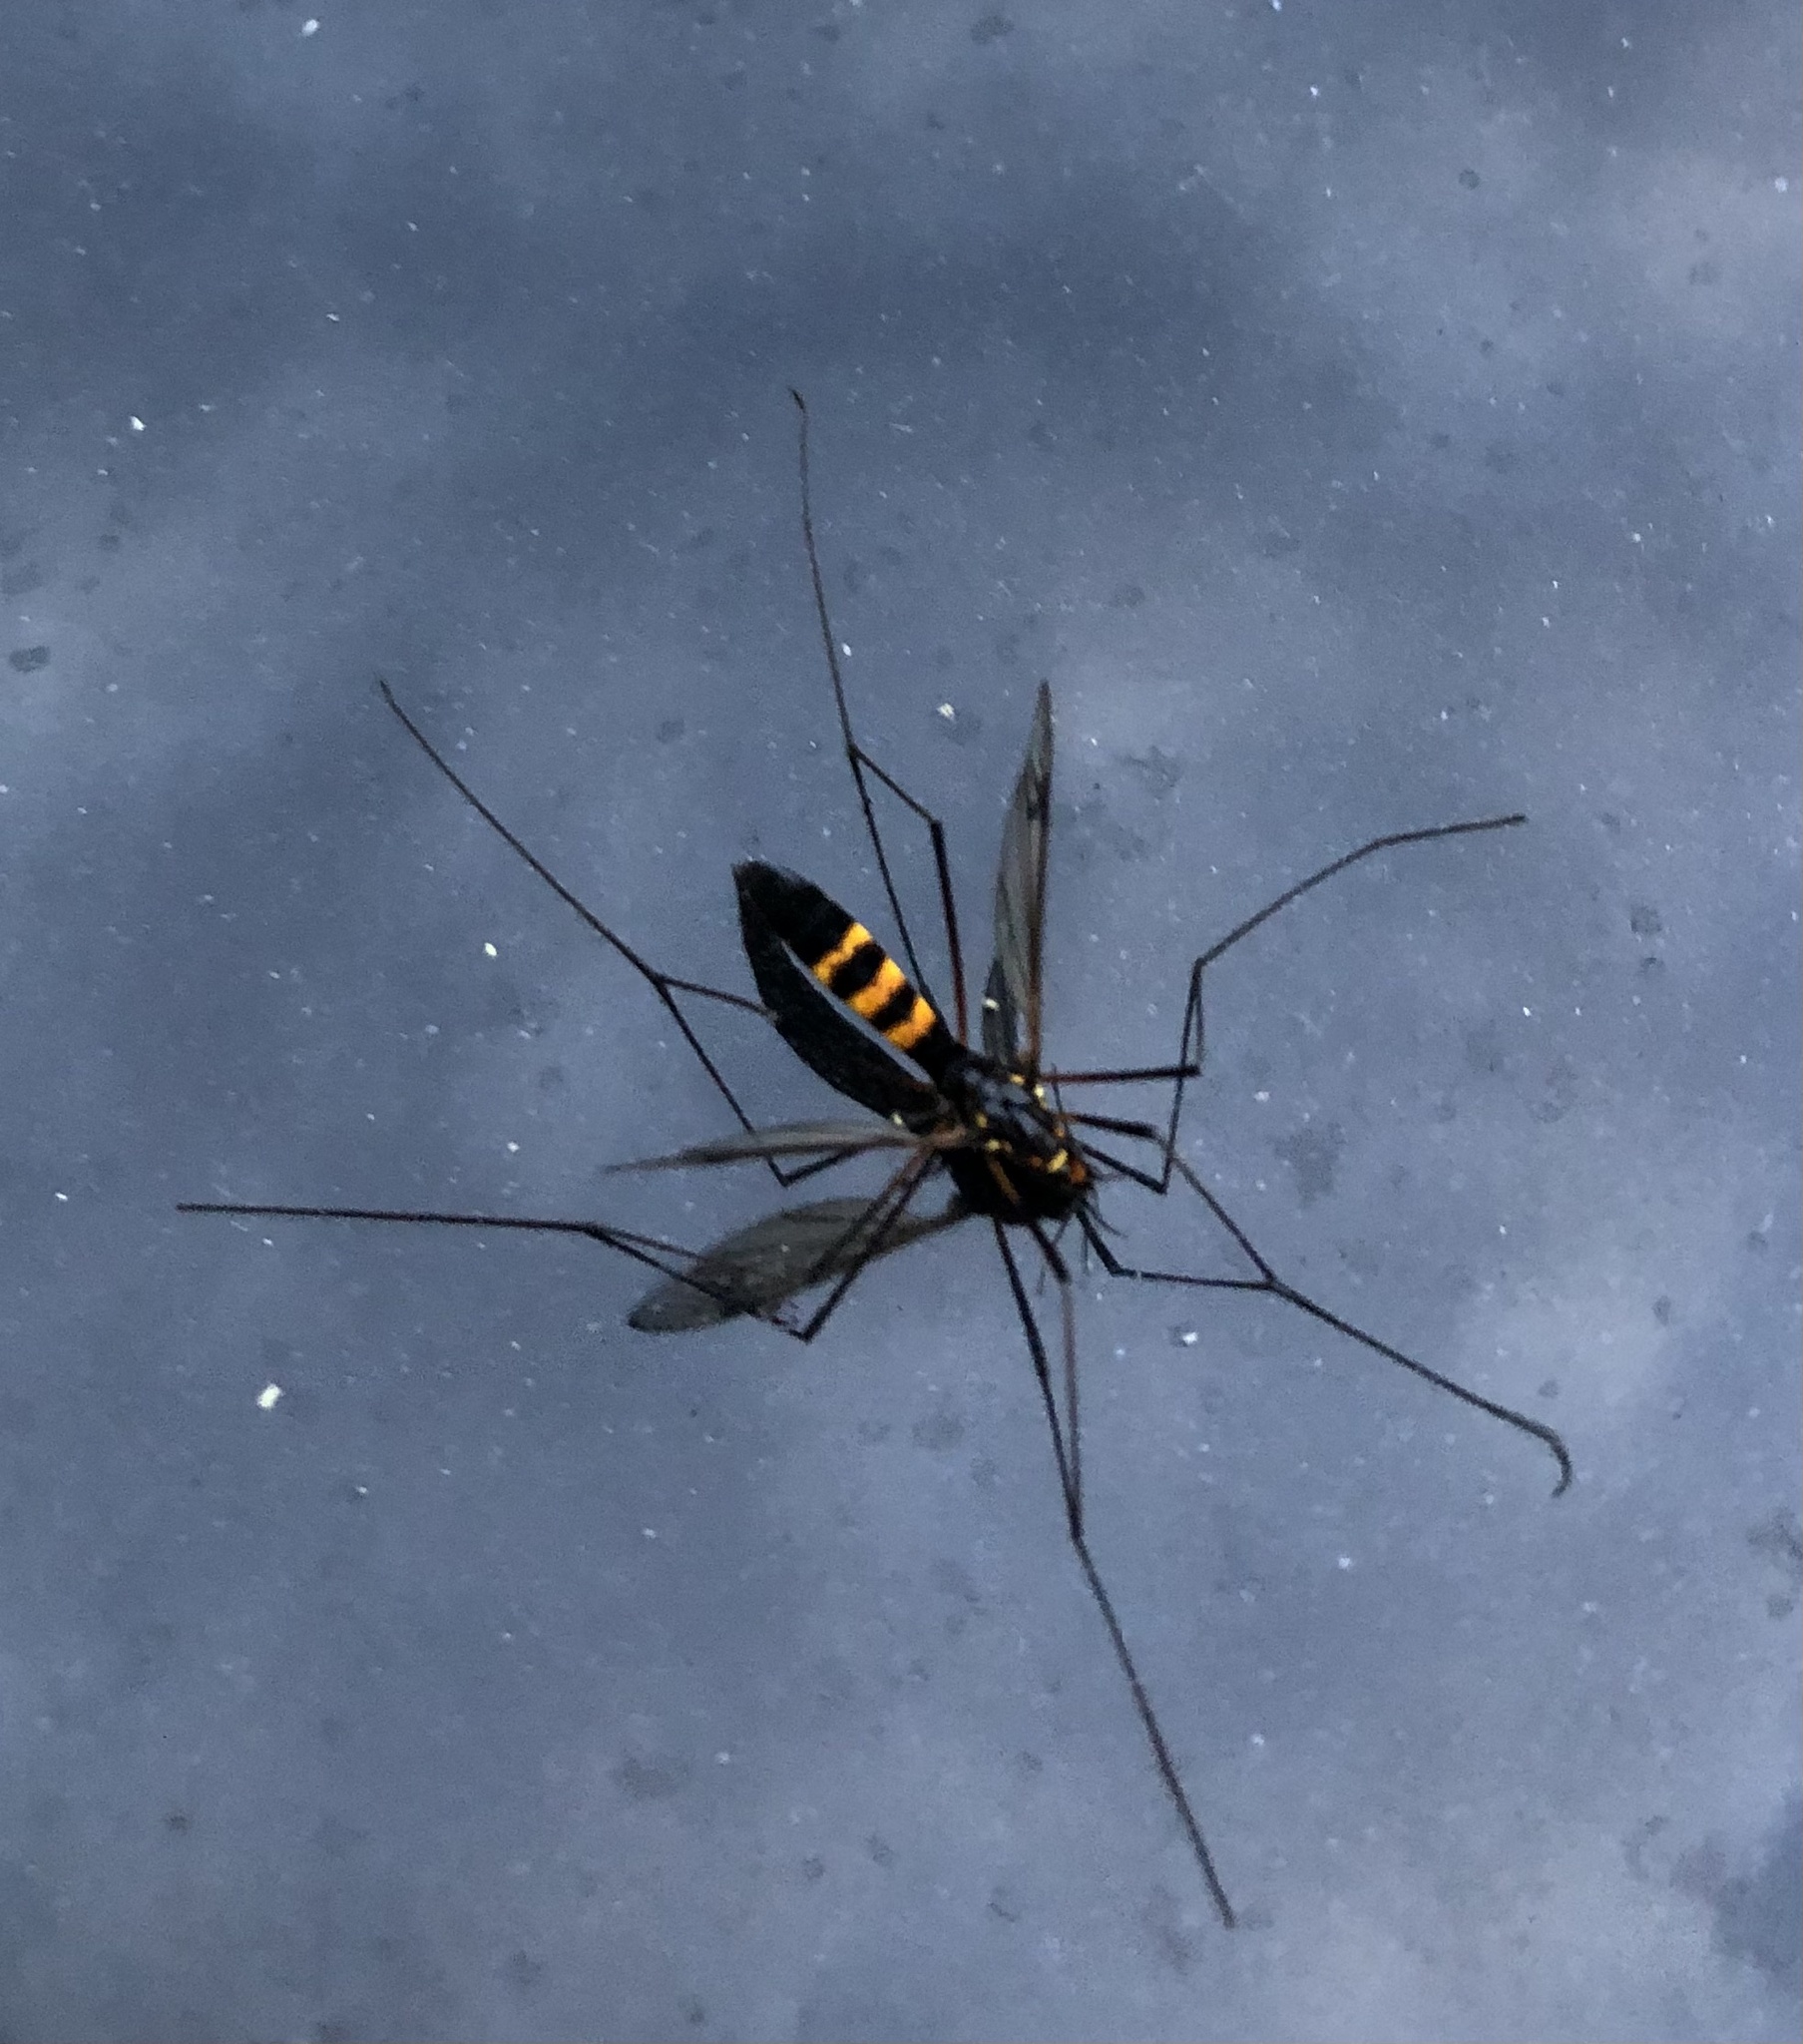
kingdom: Animalia
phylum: Arthropoda
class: Insecta
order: Diptera
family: Tipulidae
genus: Nephrotoma
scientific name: Nephrotoma crocata
